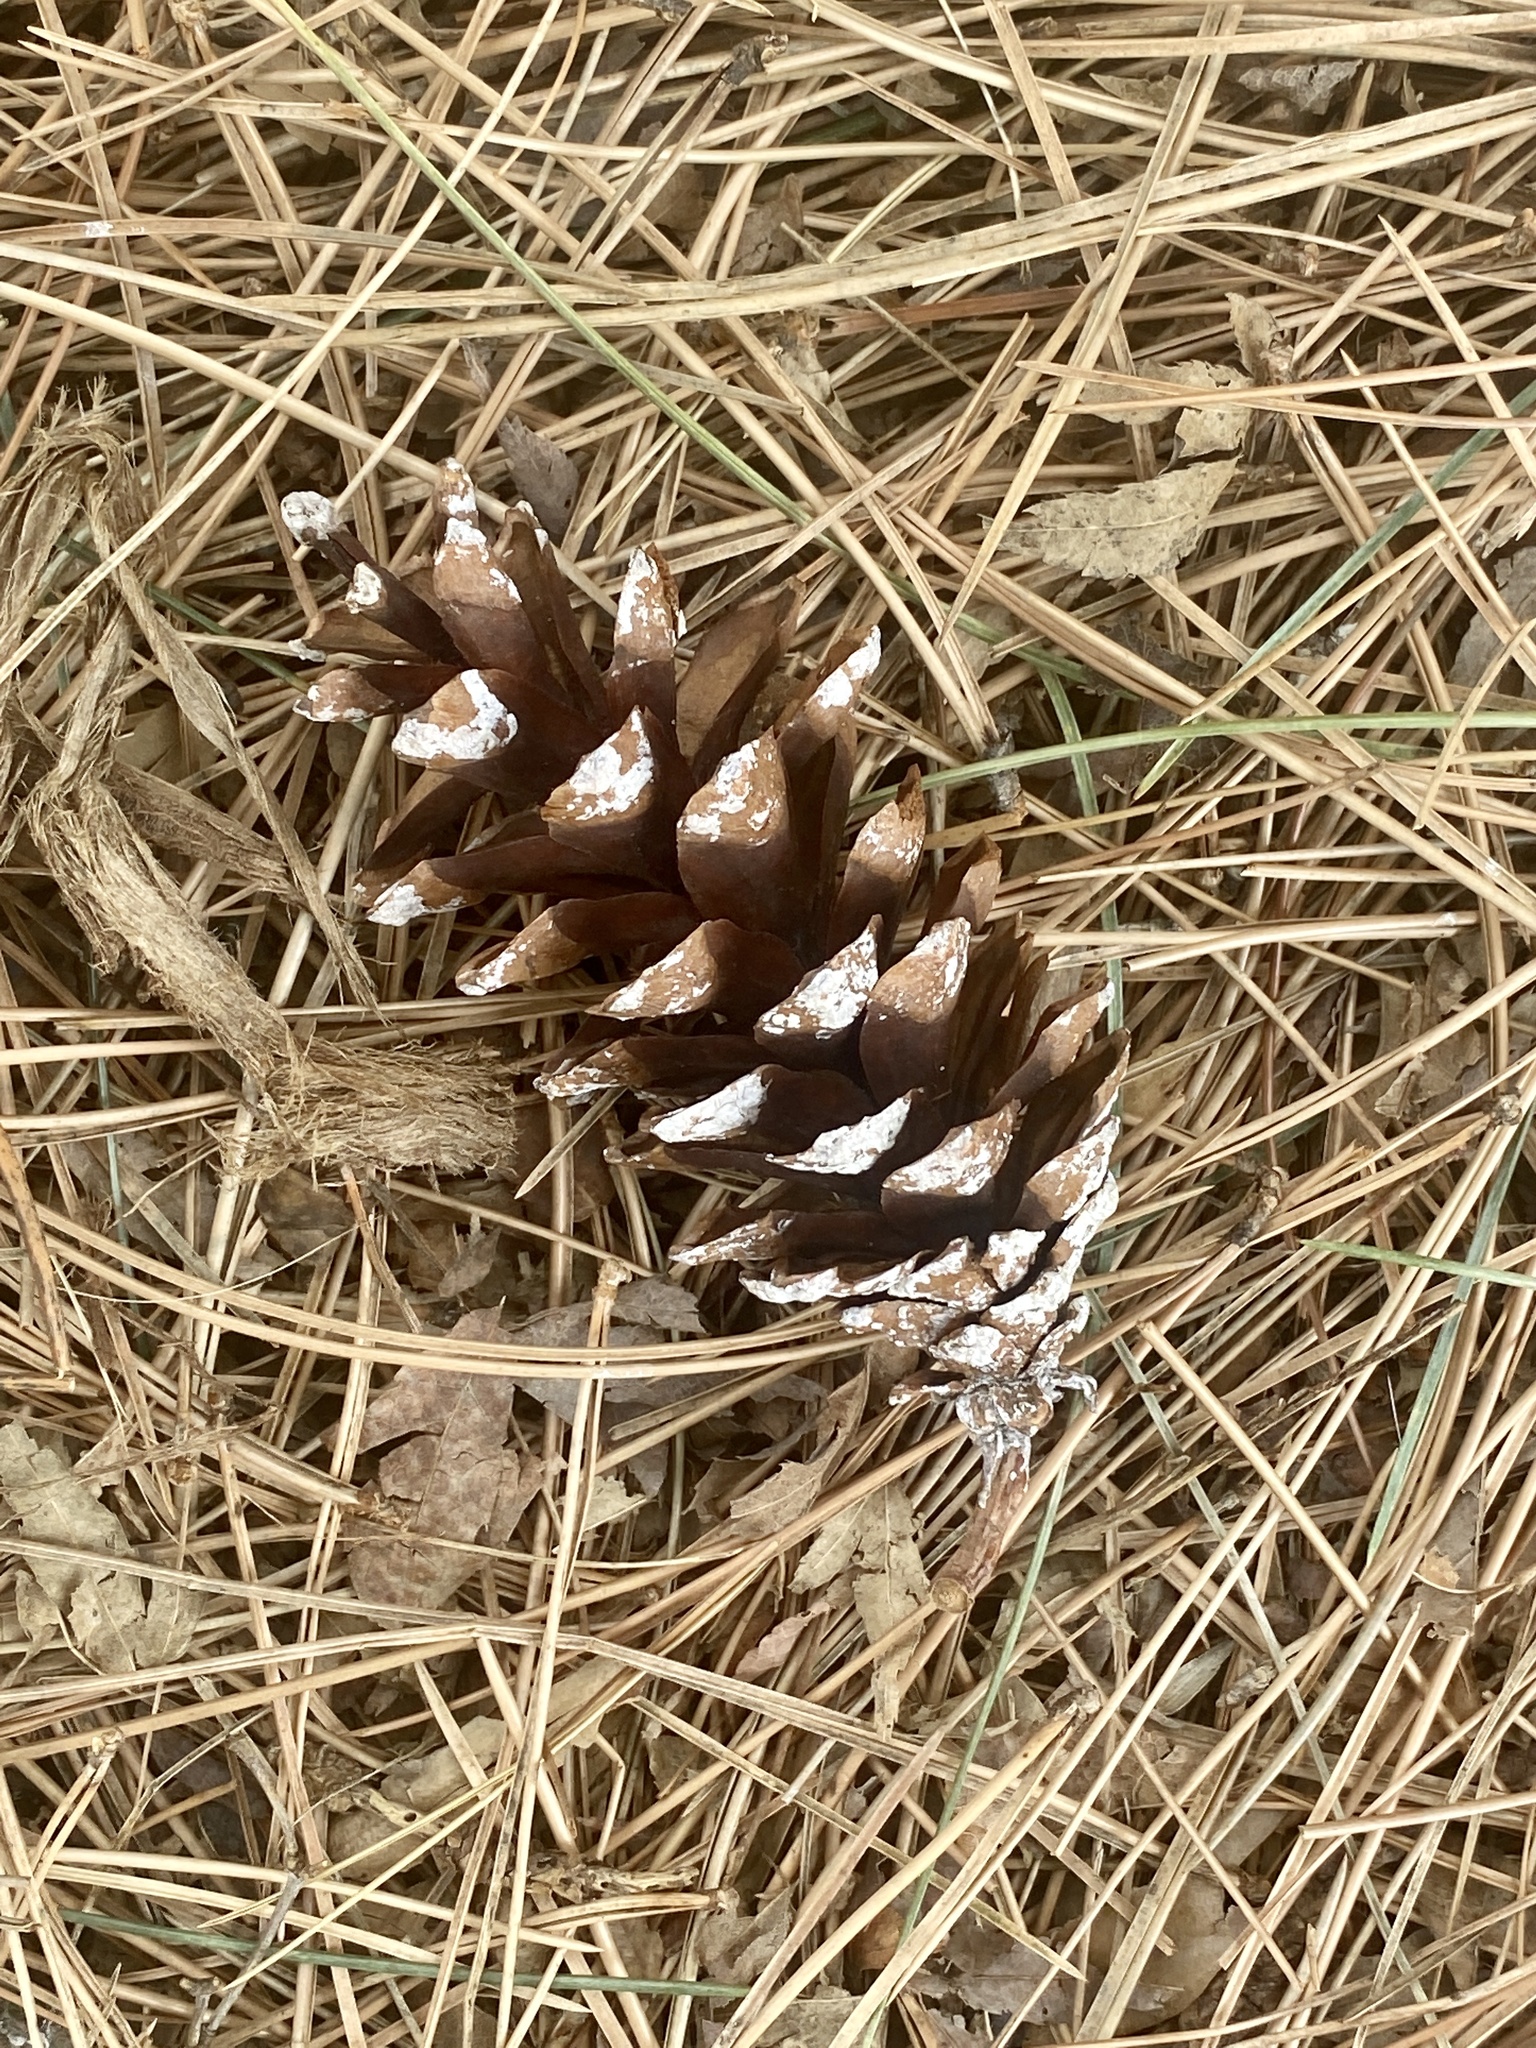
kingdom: Plantae
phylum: Tracheophyta
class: Pinopsida
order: Pinales
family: Pinaceae
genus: Pinus
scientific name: Pinus strobus
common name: Weymouth pine
